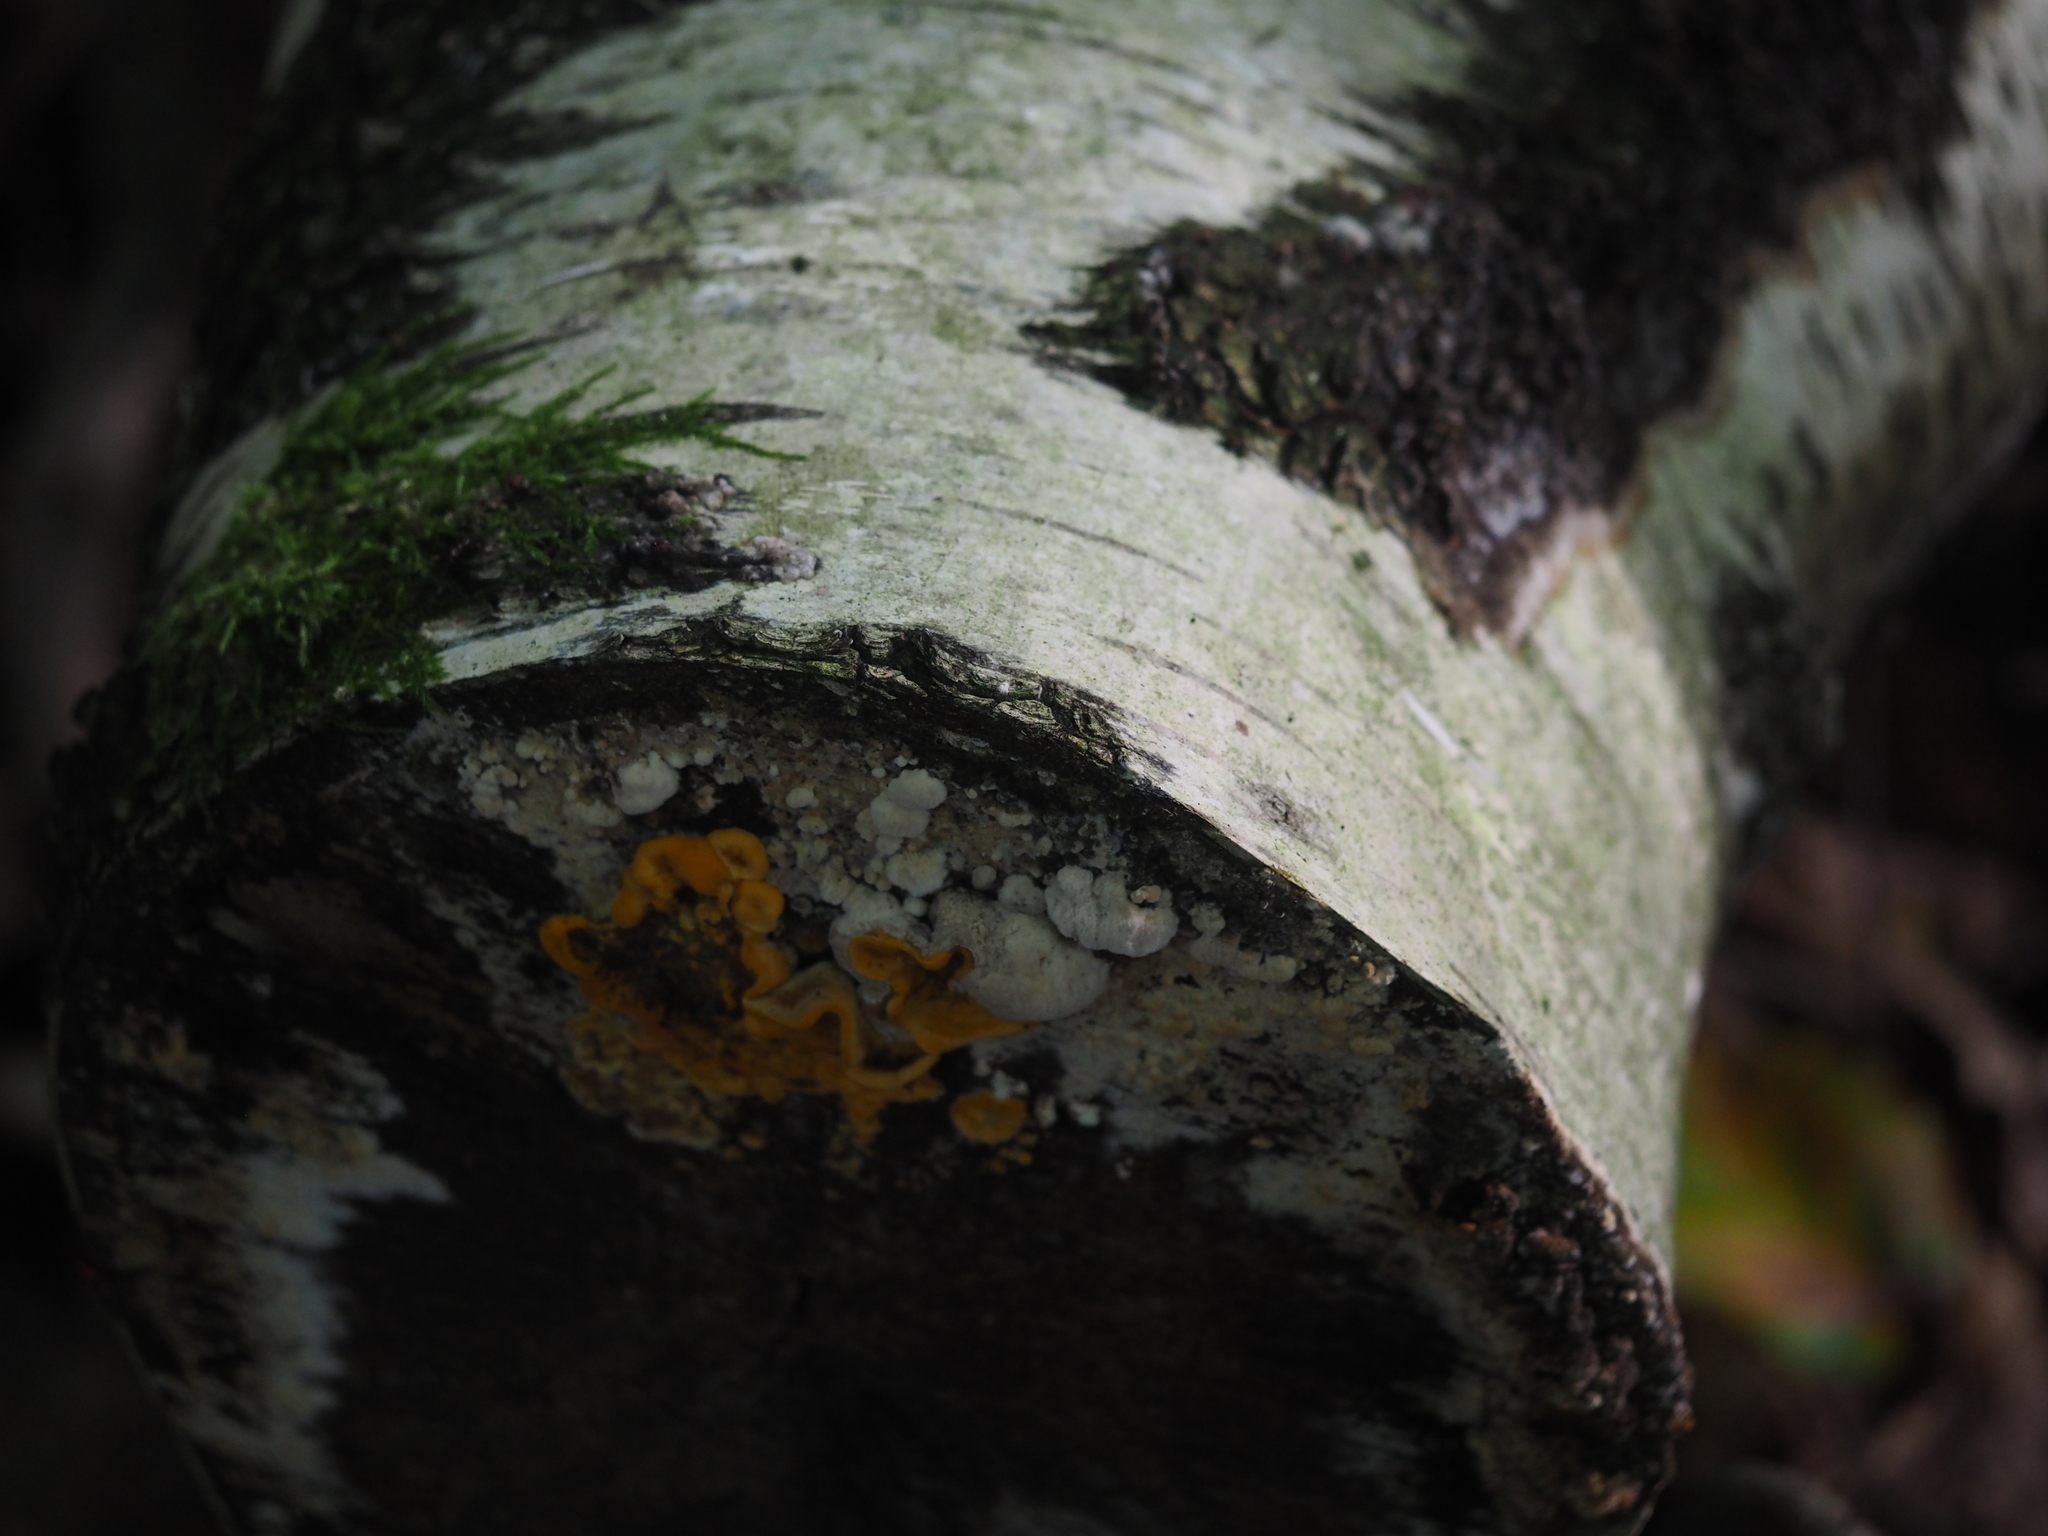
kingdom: Fungi
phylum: Basidiomycota
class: Agaricomycetes
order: Russulales
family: Stereaceae
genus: Stereum
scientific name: Stereum hirsutum
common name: Hairy curtain crust
